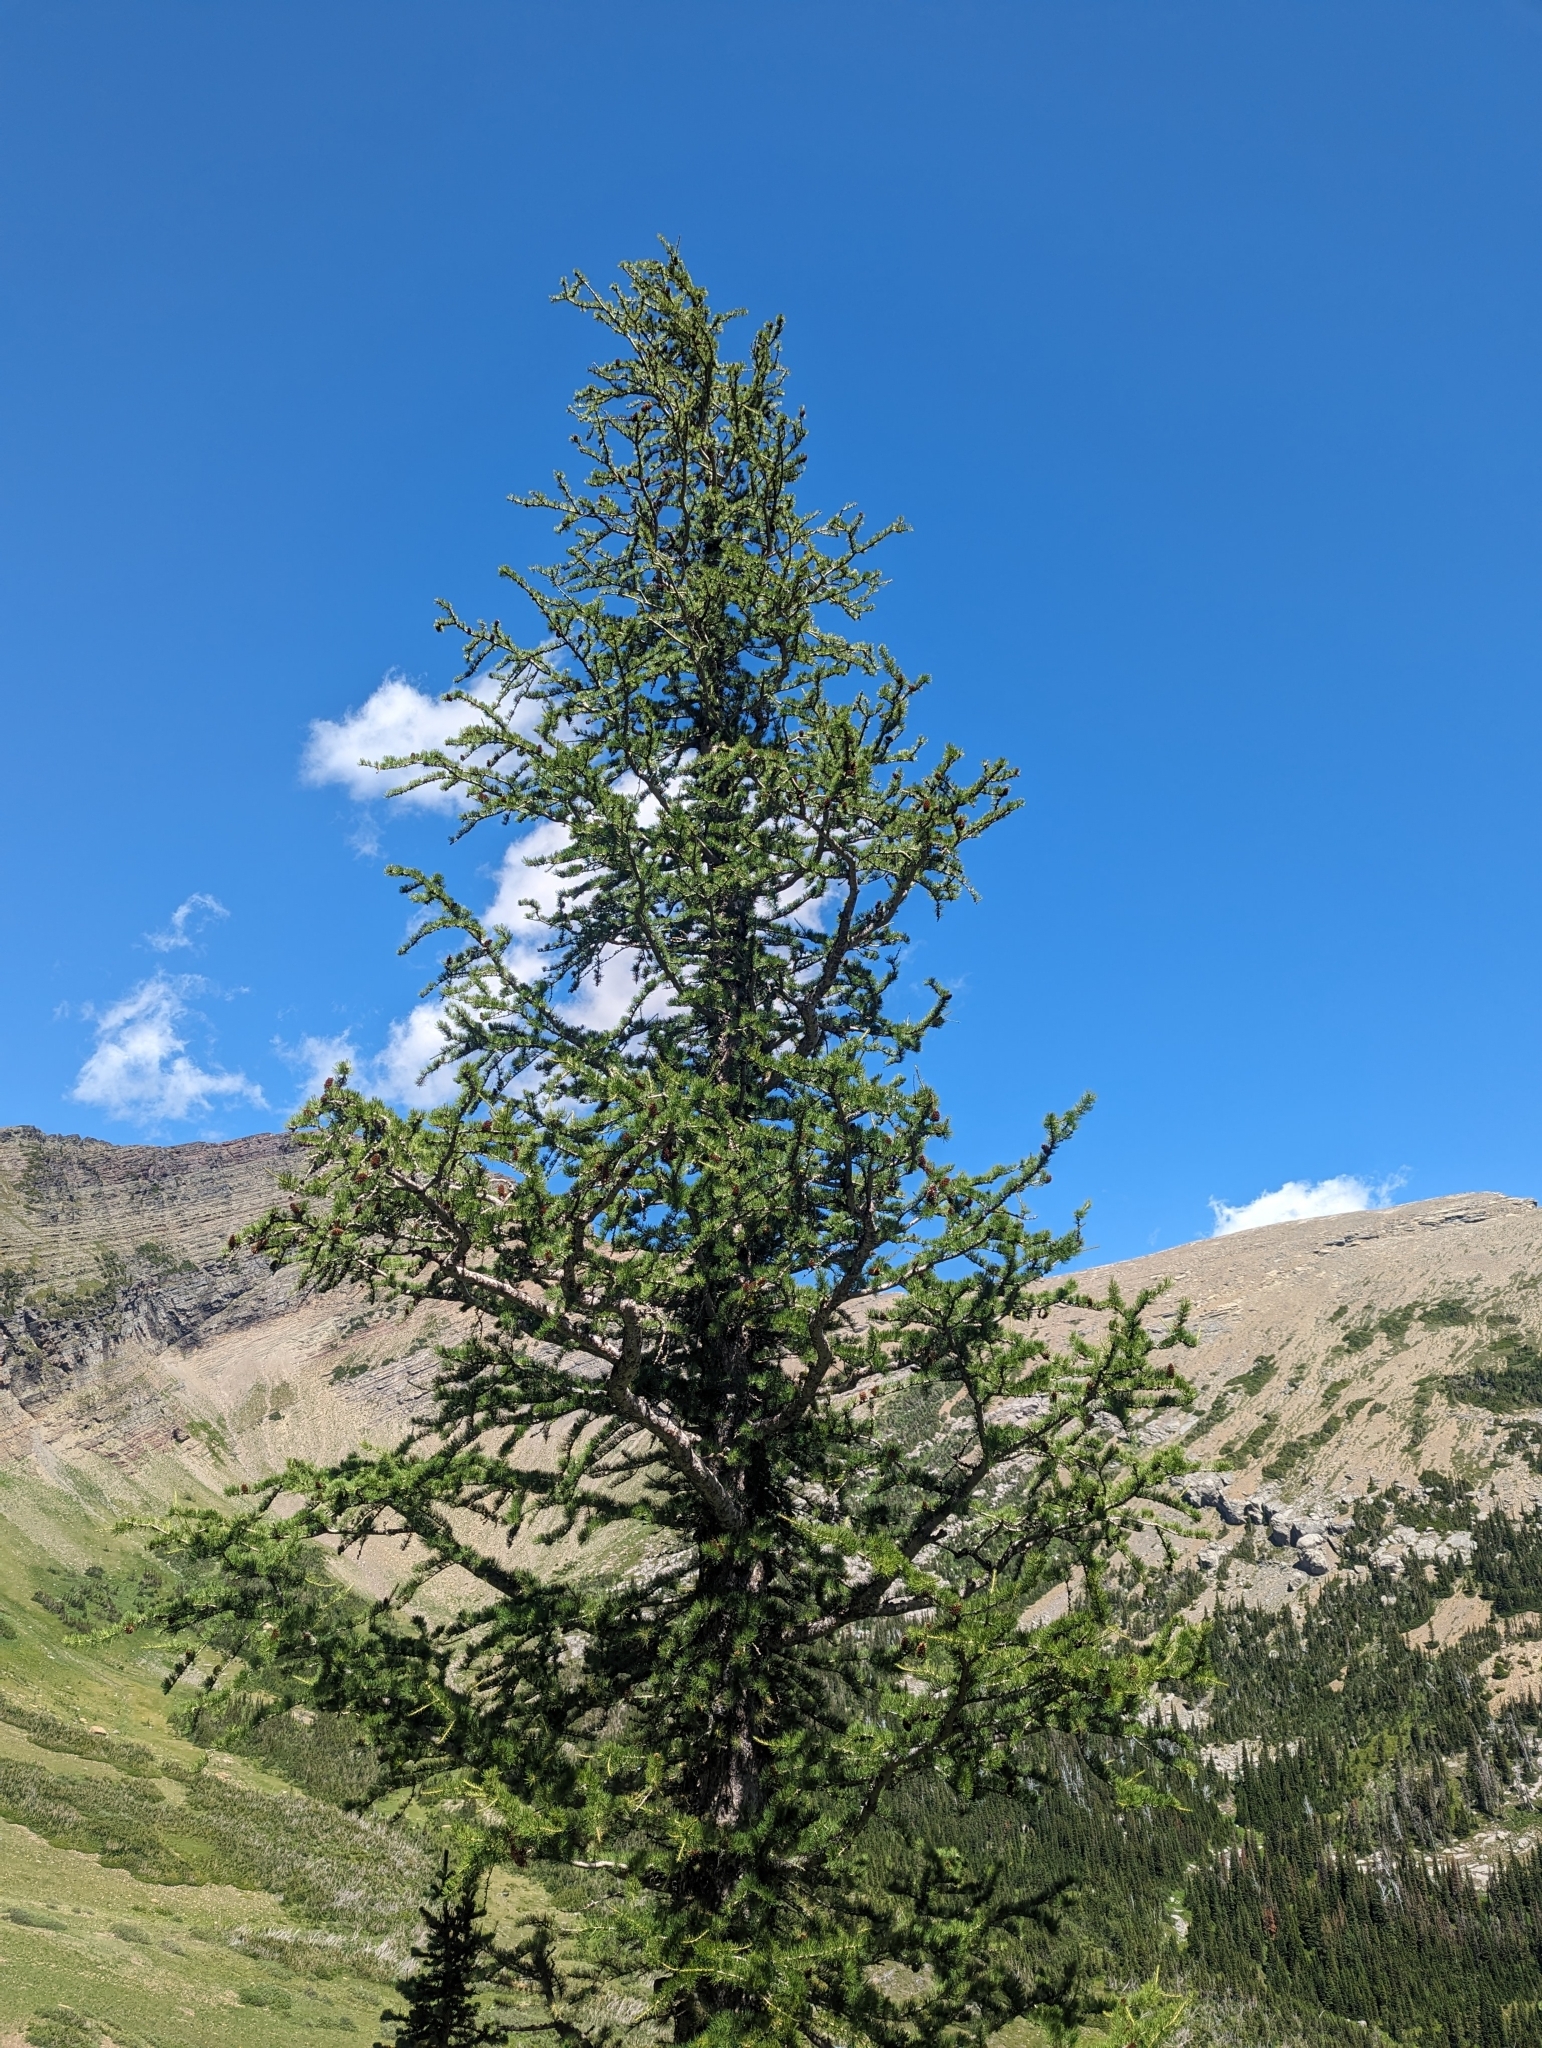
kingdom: Plantae
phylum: Tracheophyta
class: Pinopsida
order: Pinales
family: Pinaceae
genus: Larix
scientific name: Larix lyallii
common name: Alpine larch
